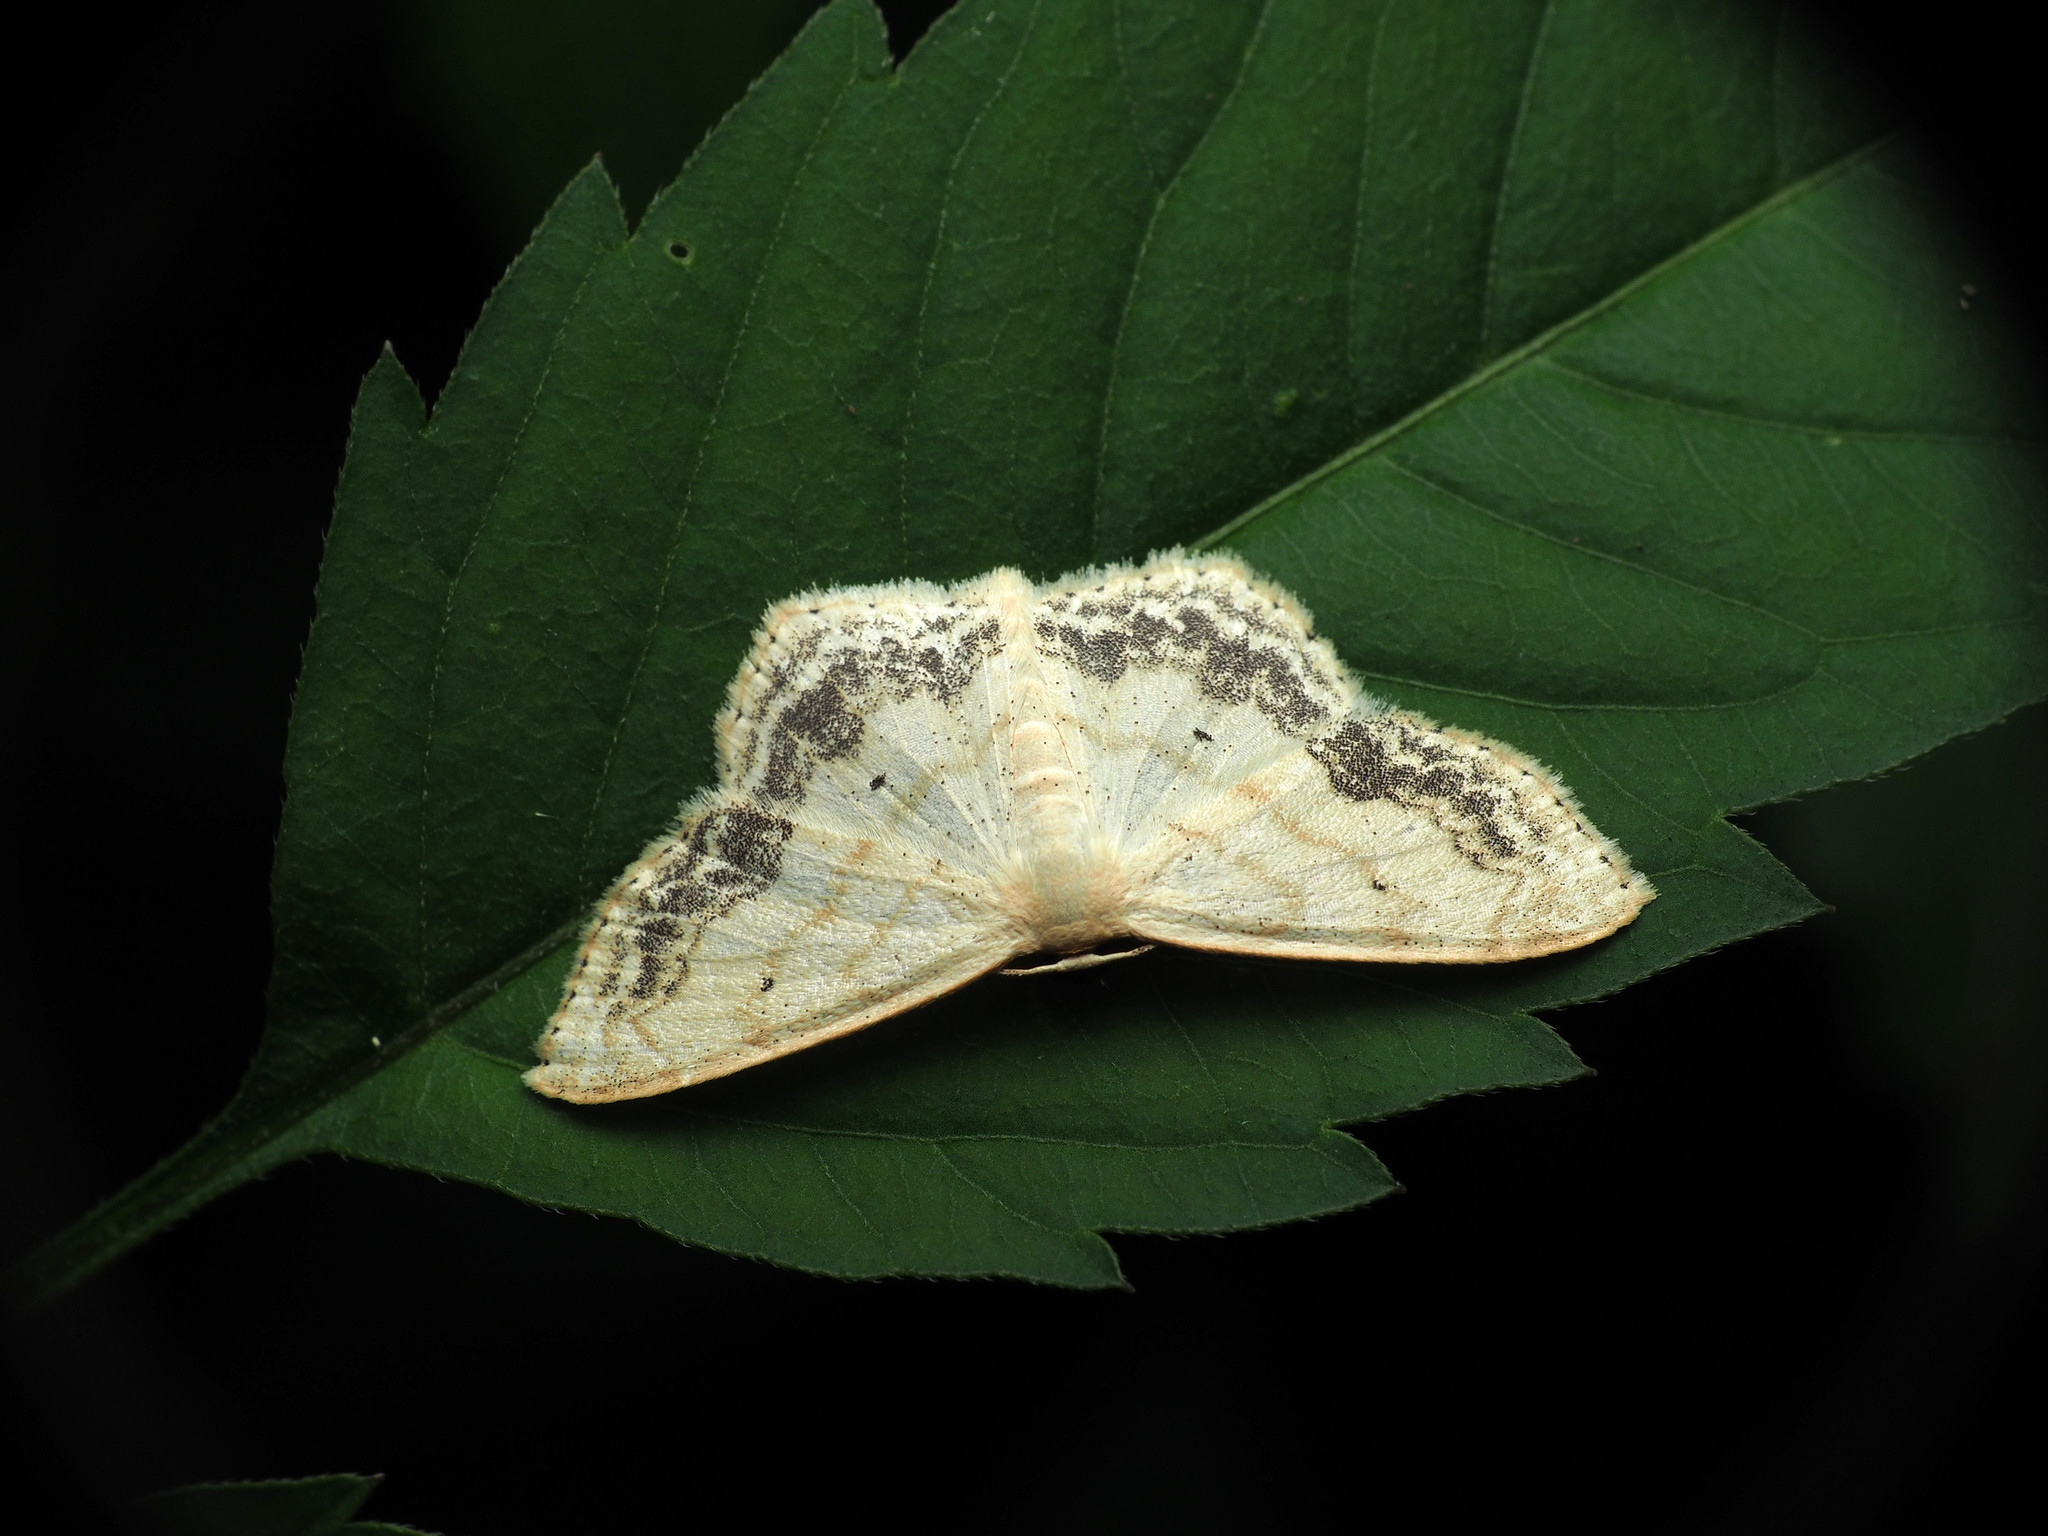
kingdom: Animalia
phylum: Arthropoda
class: Insecta
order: Lepidoptera
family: Geometridae
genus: Scopula
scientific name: Scopula limboundata
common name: Large lace border
